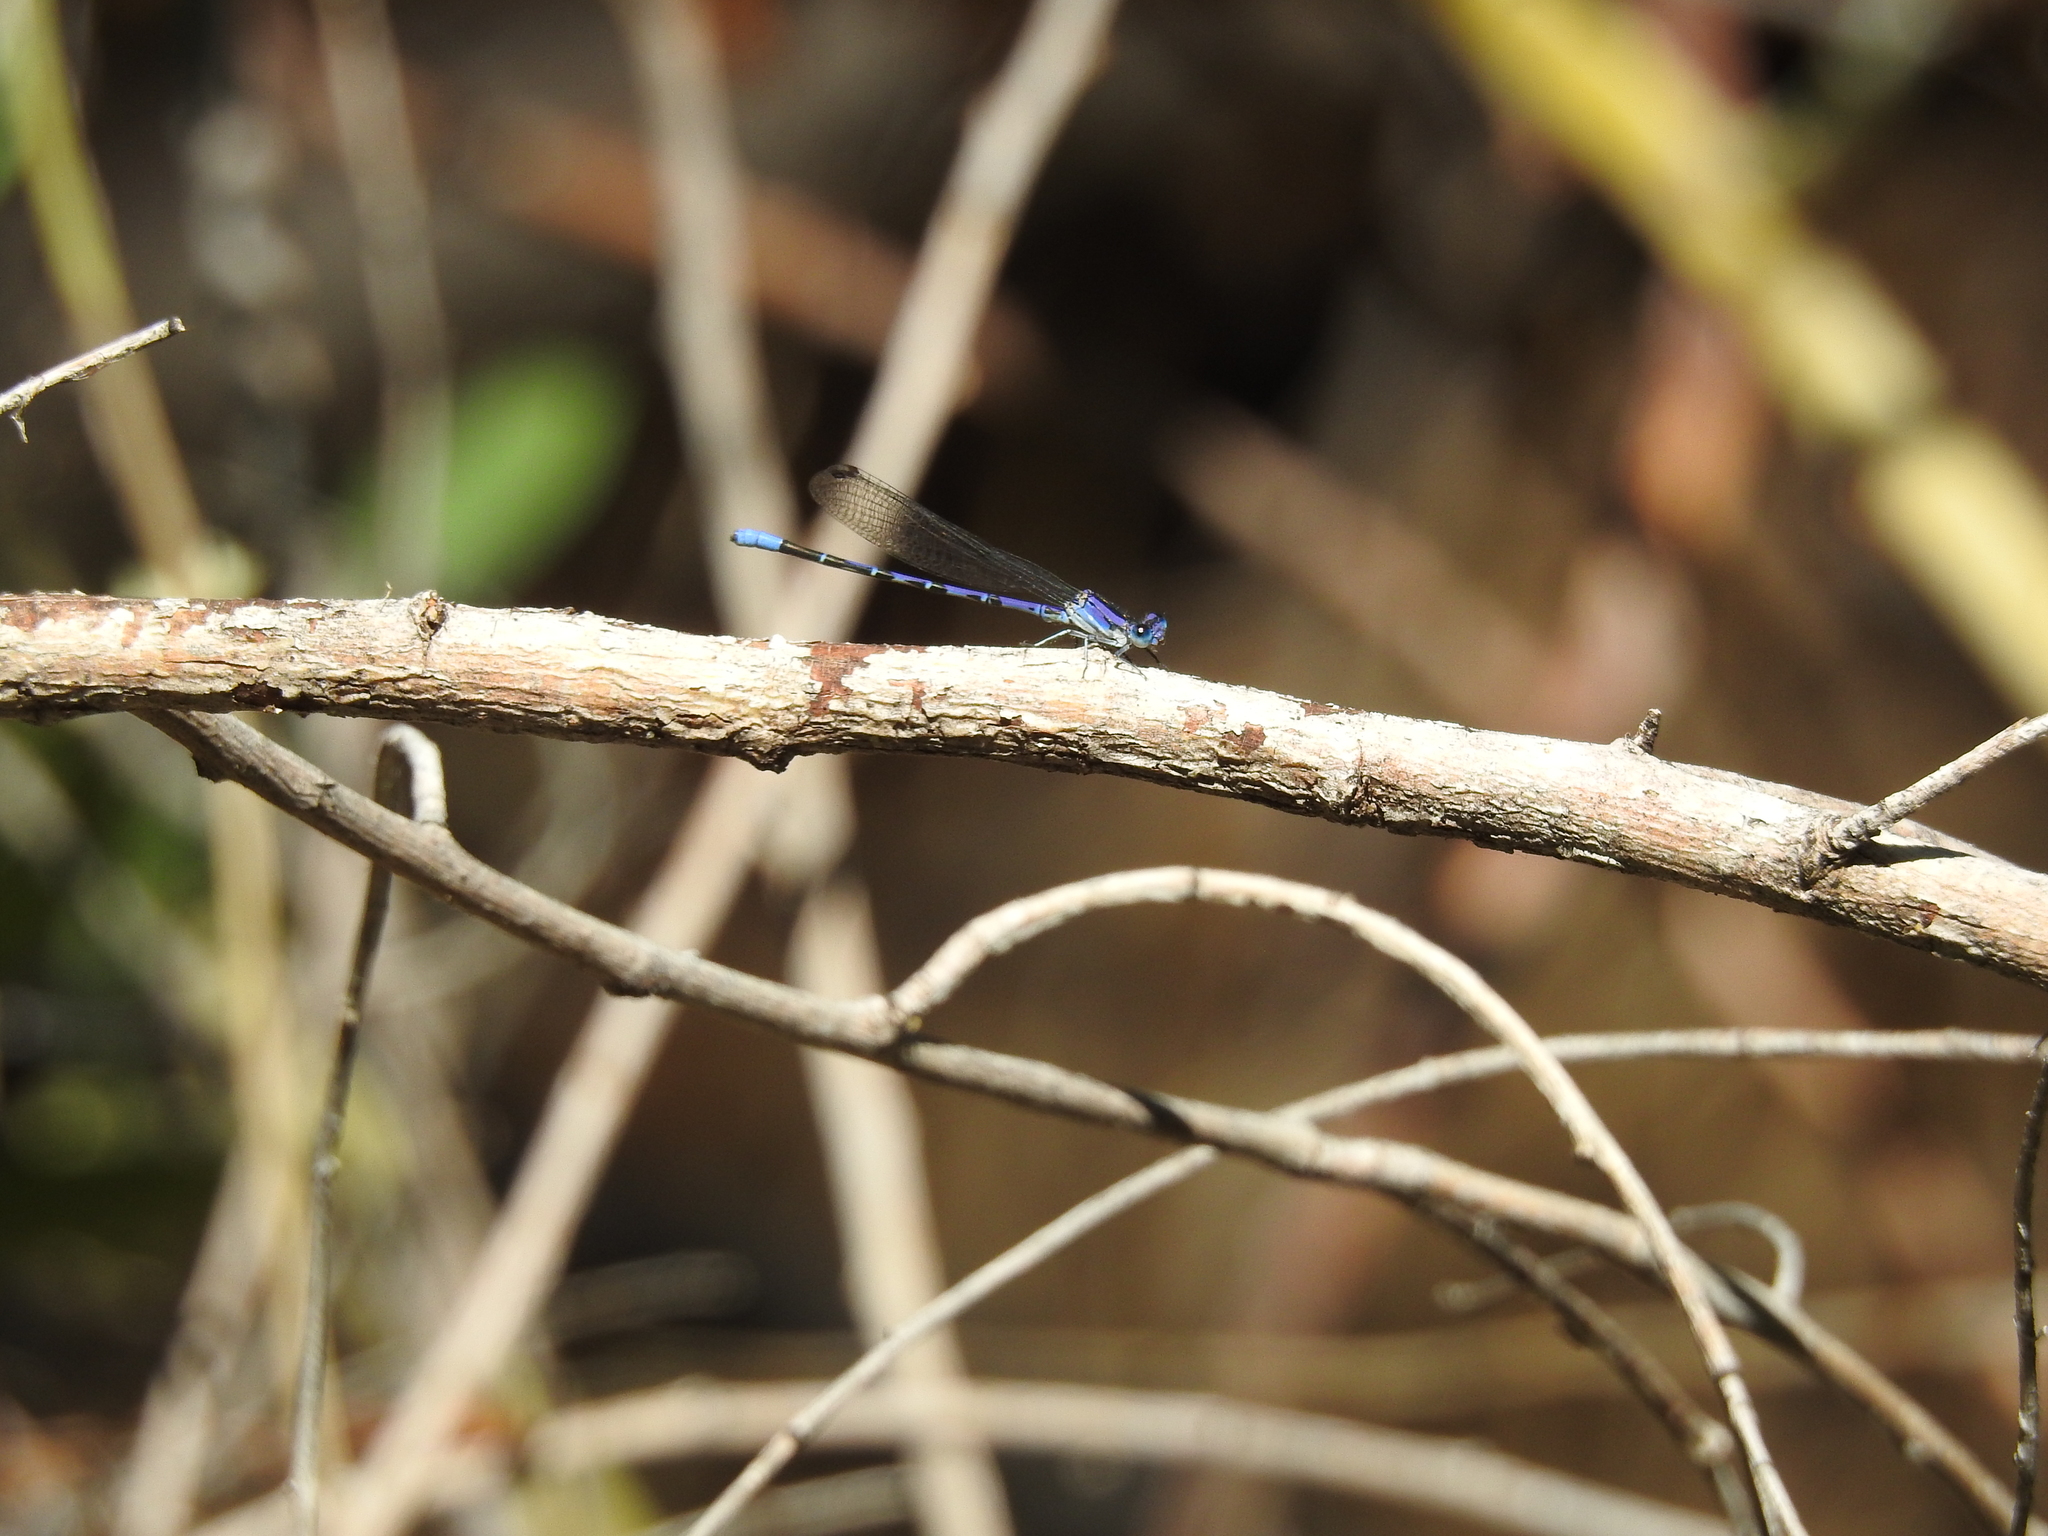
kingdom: Animalia
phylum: Arthropoda
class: Insecta
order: Odonata
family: Coenagrionidae
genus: Argia
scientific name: Argia funebris
